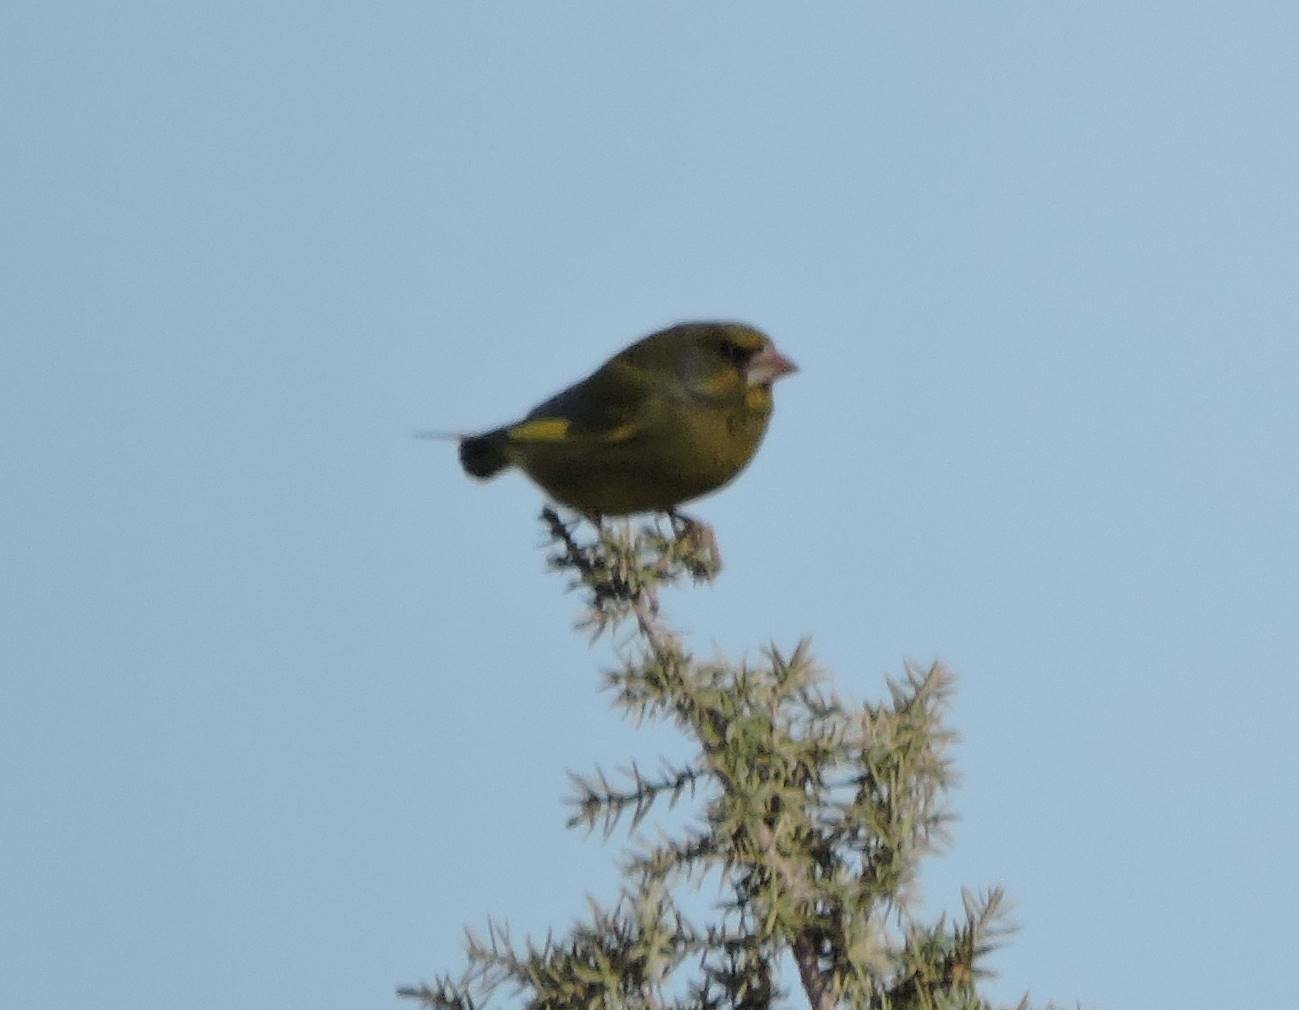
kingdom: Plantae
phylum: Tracheophyta
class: Liliopsida
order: Poales
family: Poaceae
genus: Chloris
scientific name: Chloris chloris
